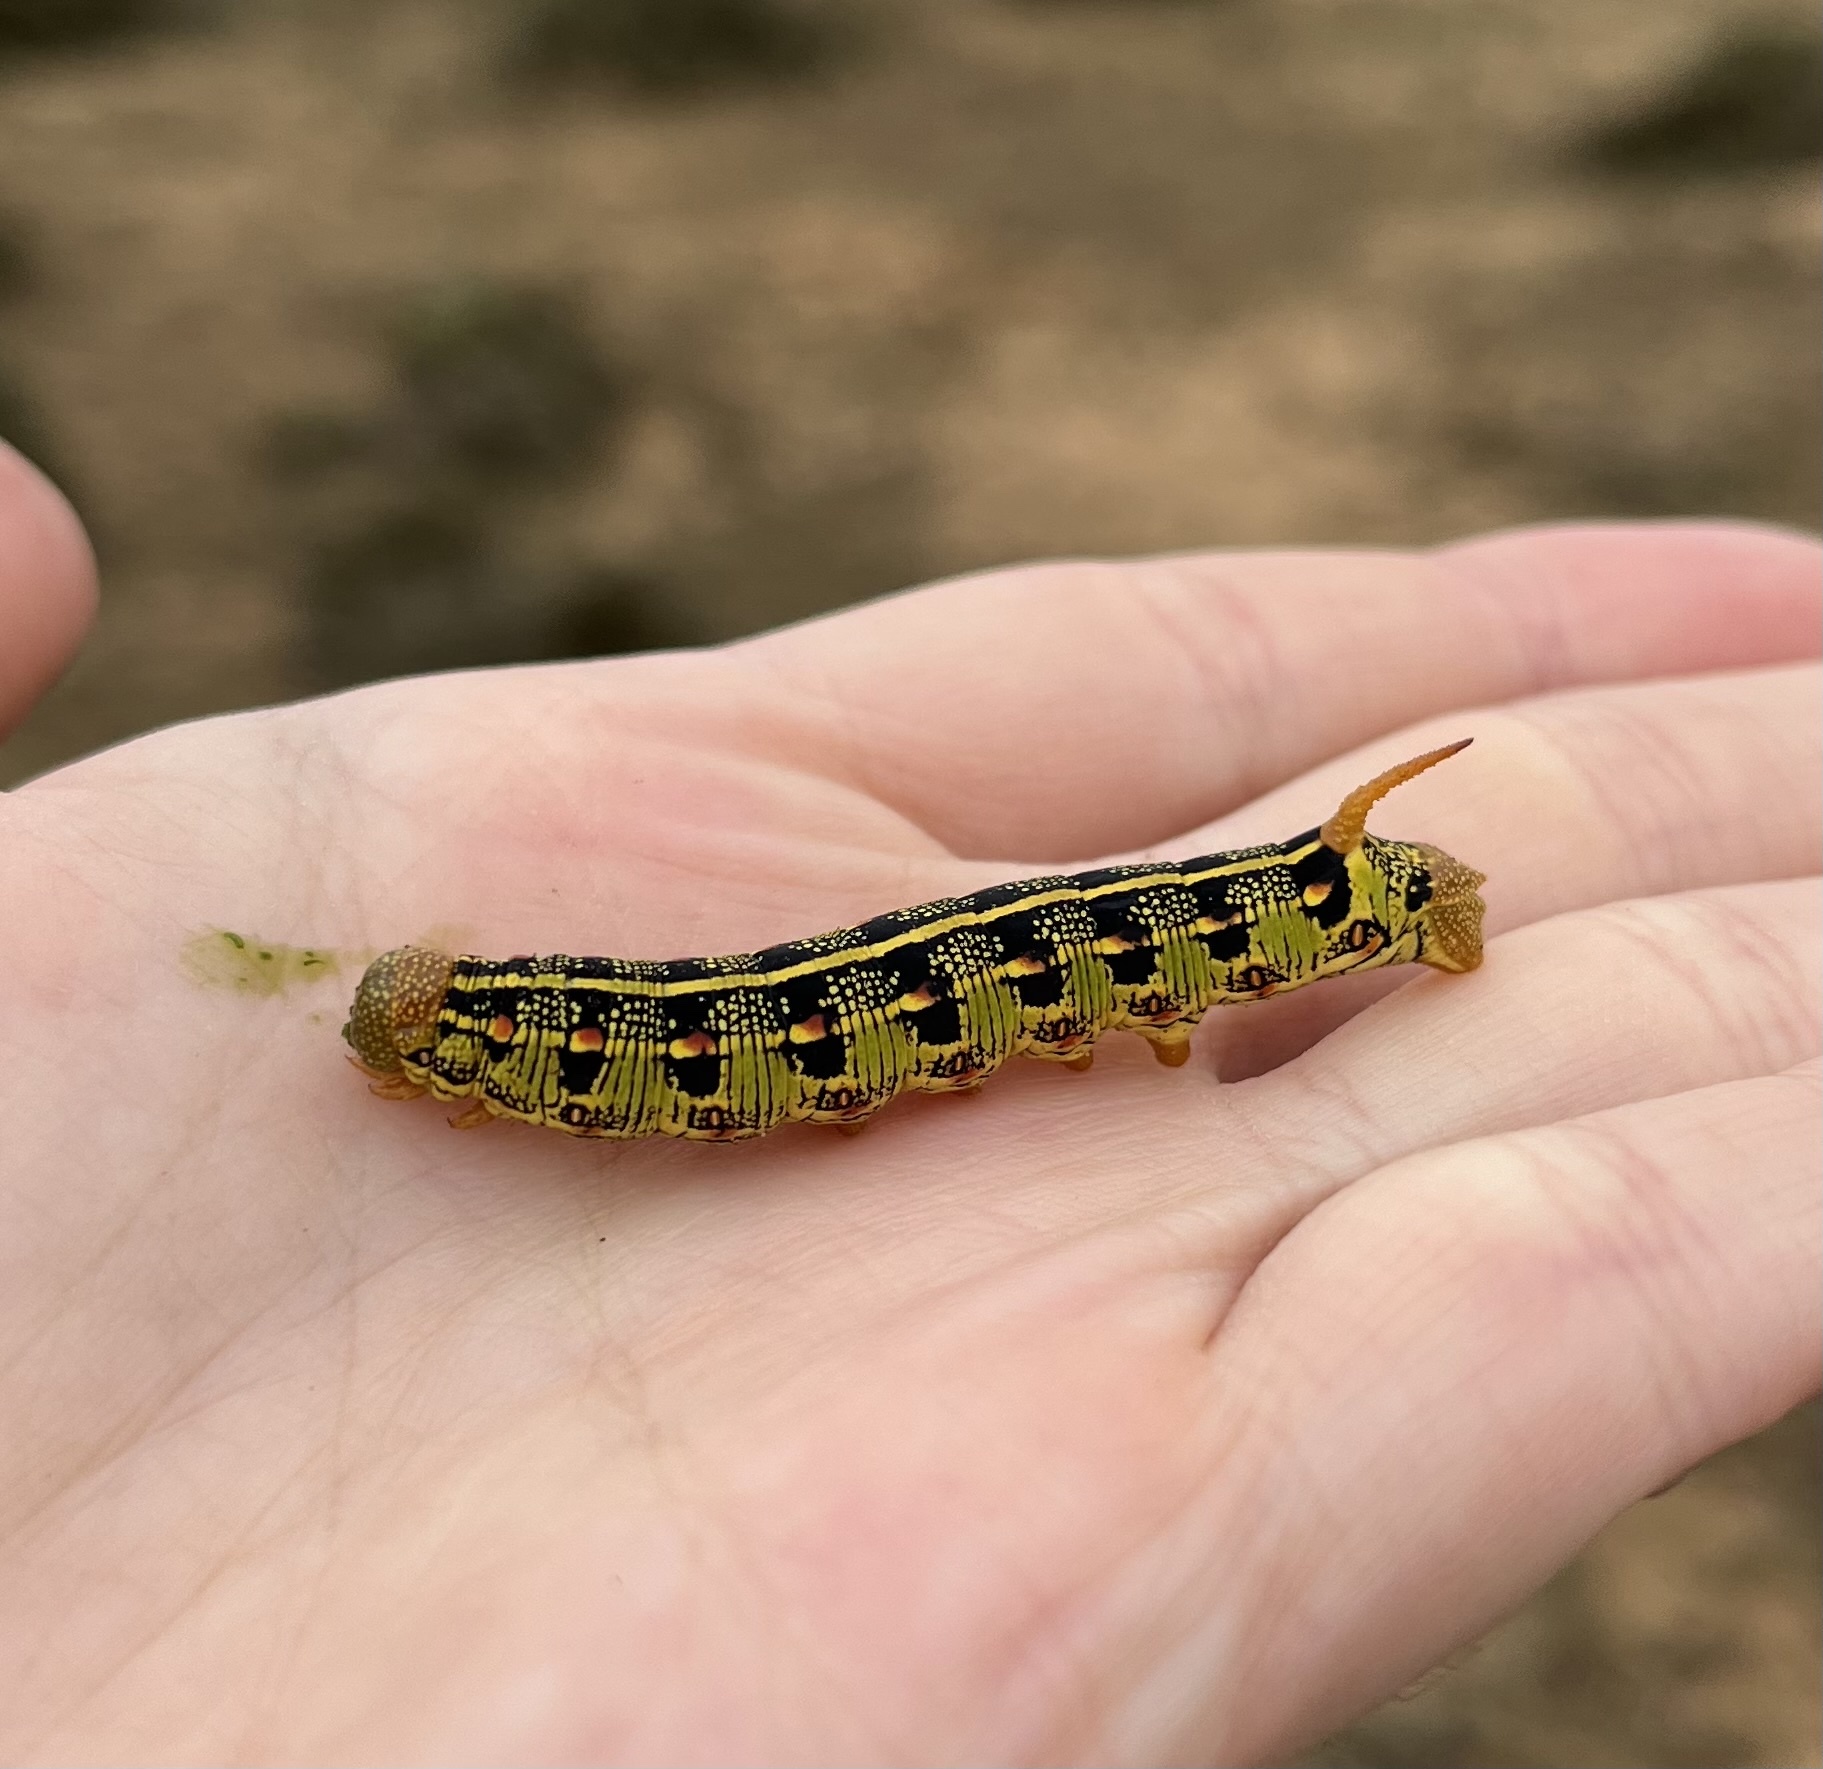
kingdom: Animalia
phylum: Arthropoda
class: Insecta
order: Lepidoptera
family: Sphingidae
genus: Hyles
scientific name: Hyles lineata
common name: White-lined sphinx
